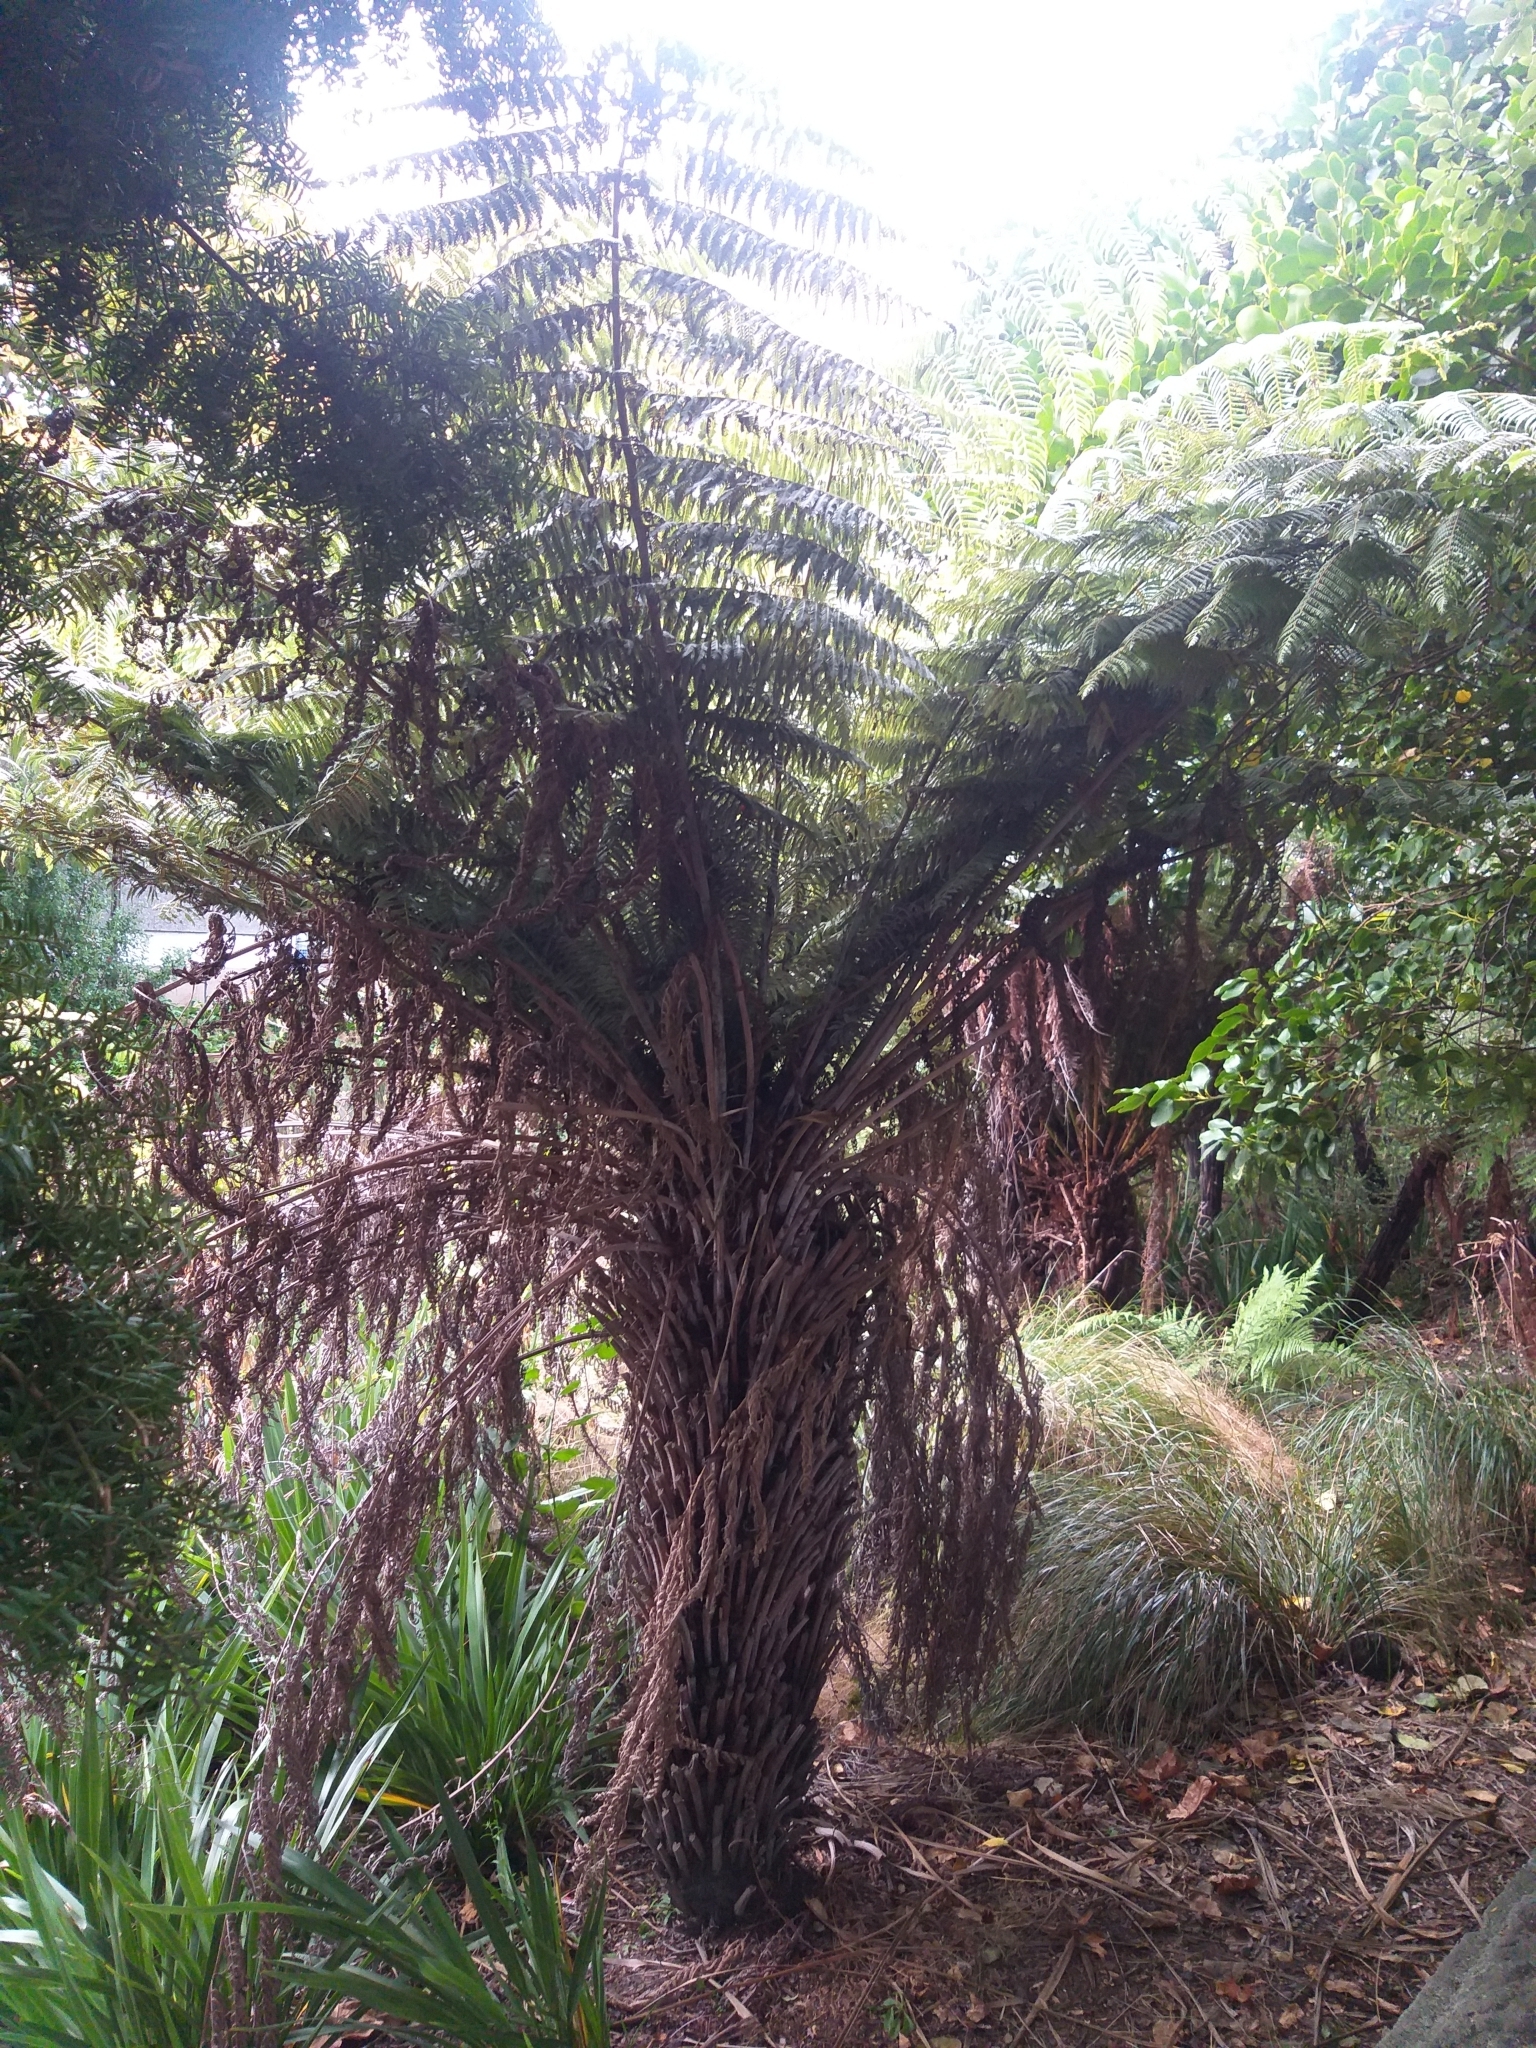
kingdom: Plantae
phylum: Tracheophyta
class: Polypodiopsida
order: Cyatheales
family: Cyatheaceae
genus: Alsophila
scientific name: Alsophila dealbata
